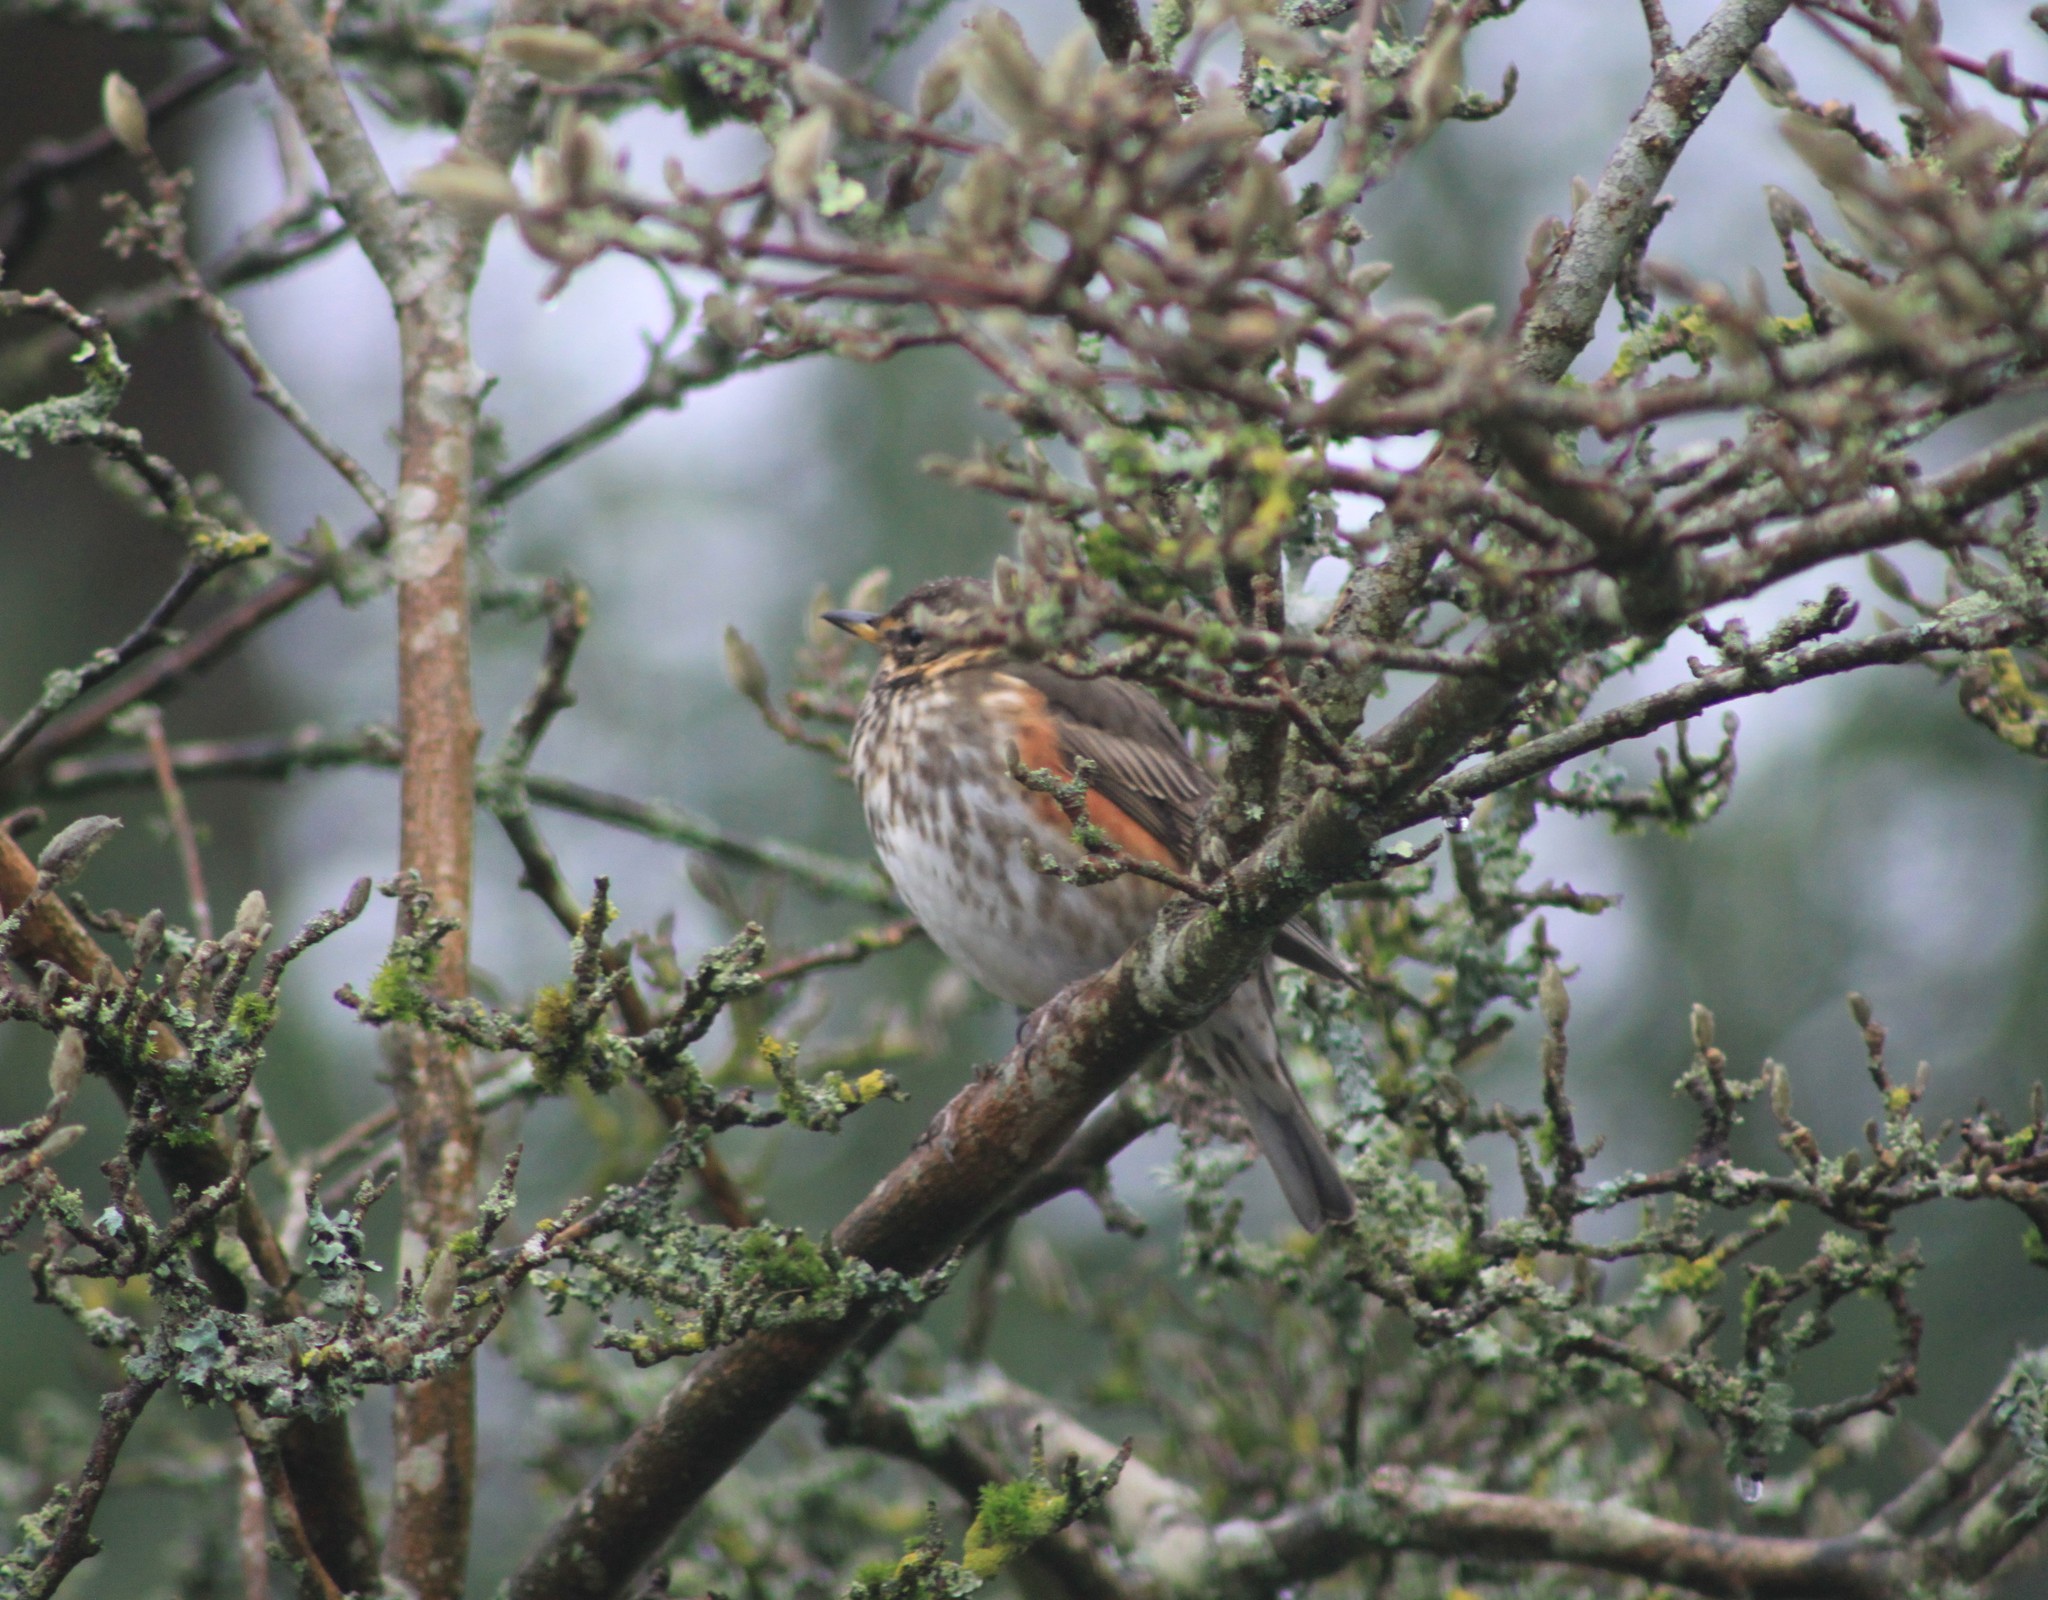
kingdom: Animalia
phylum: Chordata
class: Aves
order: Passeriformes
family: Turdidae
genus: Turdus
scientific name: Turdus iliacus
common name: Redwing
